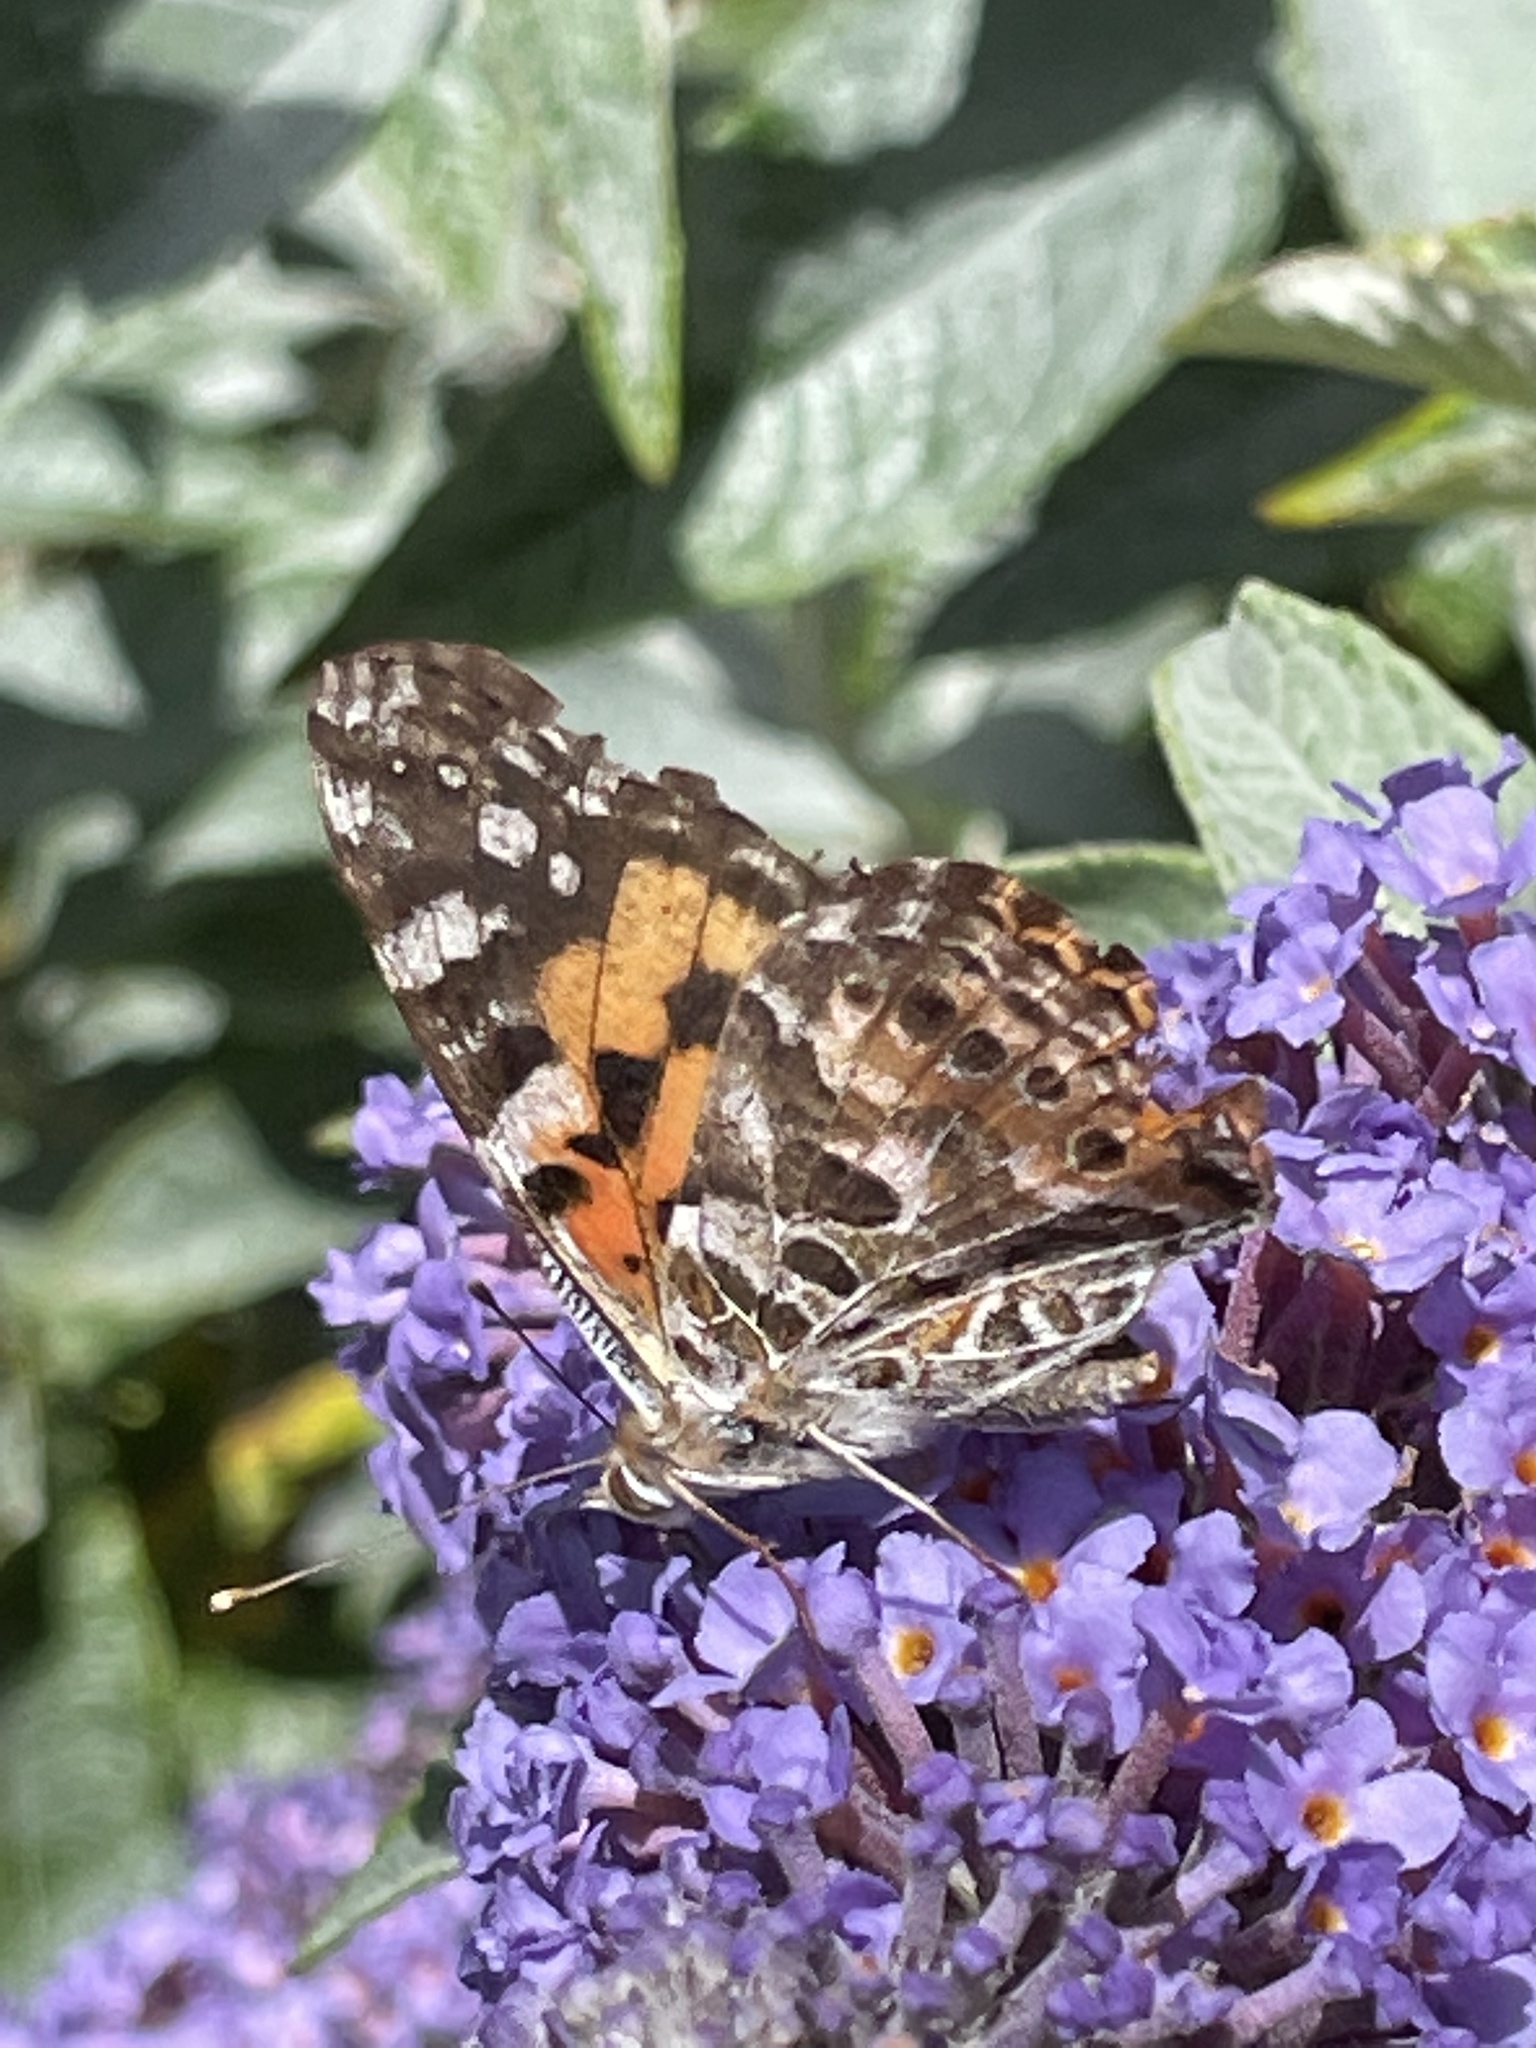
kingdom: Animalia
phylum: Arthropoda
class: Insecta
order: Lepidoptera
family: Nymphalidae
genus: Vanessa
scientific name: Vanessa kershawi
